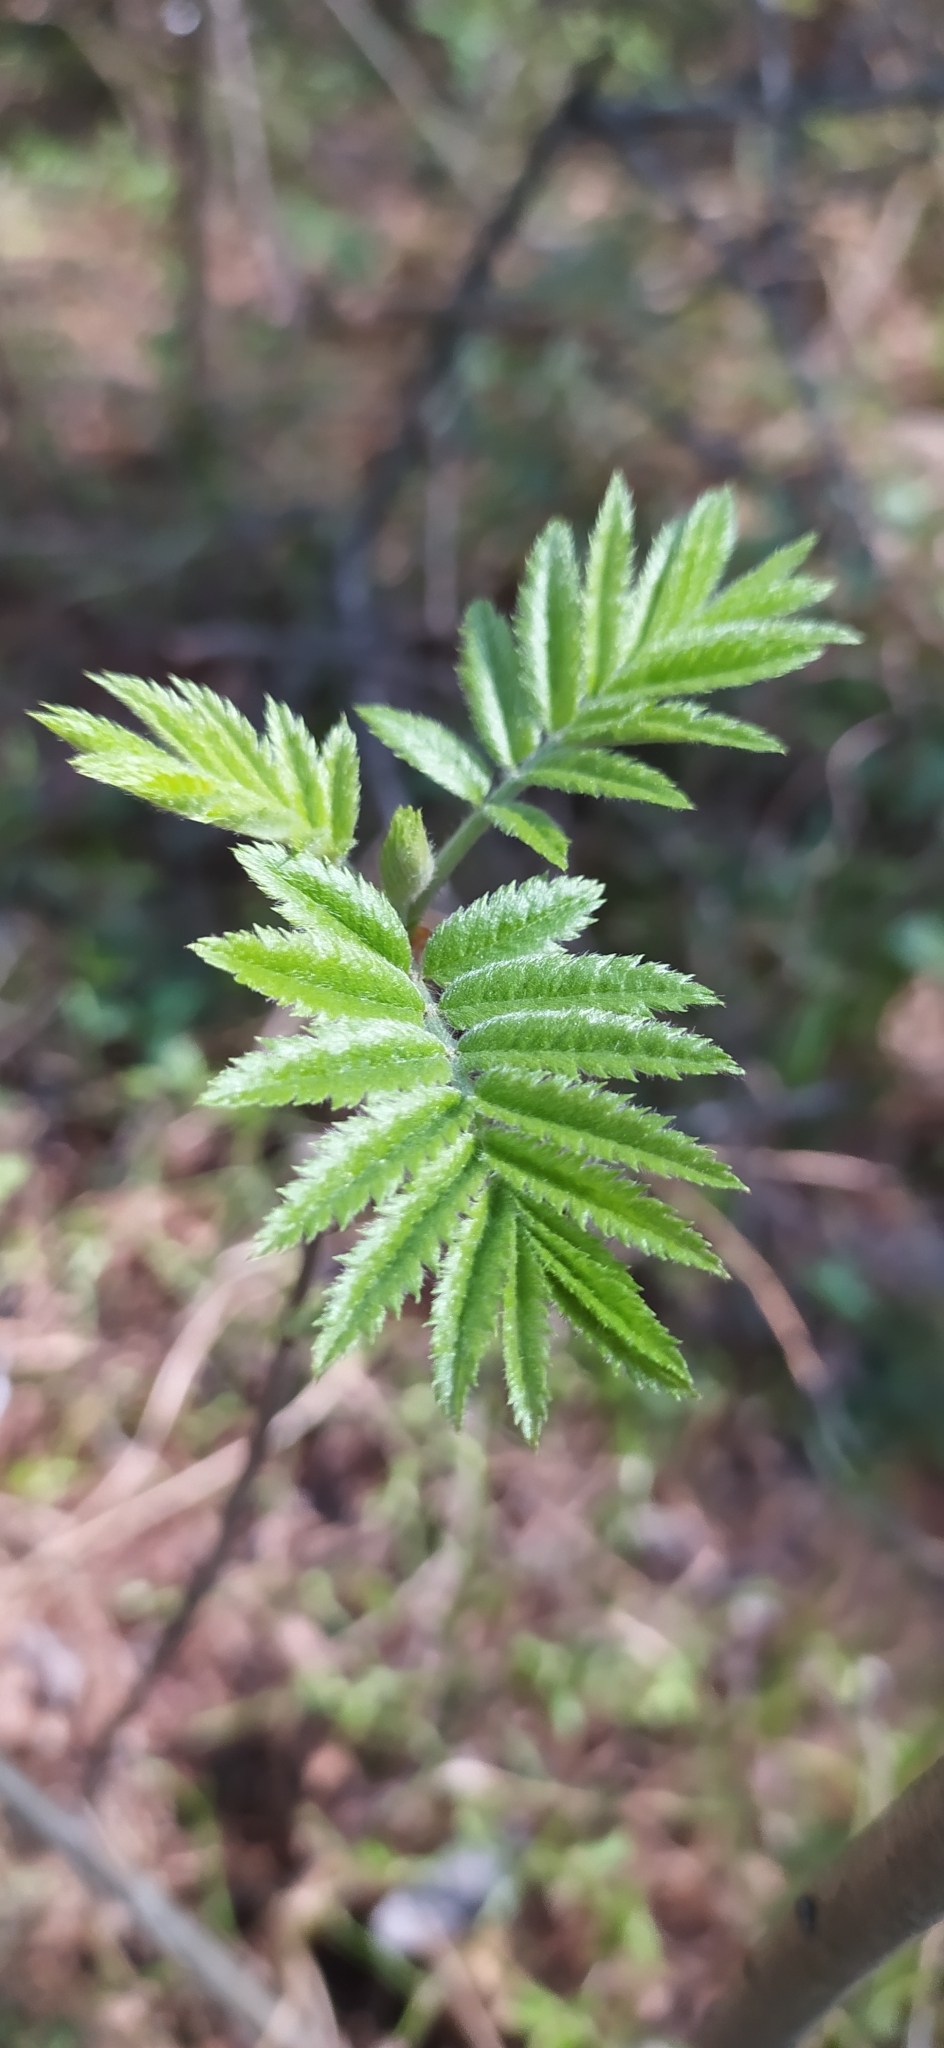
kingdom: Plantae
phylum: Tracheophyta
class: Magnoliopsida
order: Rosales
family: Rosaceae
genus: Sorbus
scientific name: Sorbus aucuparia
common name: Rowan
